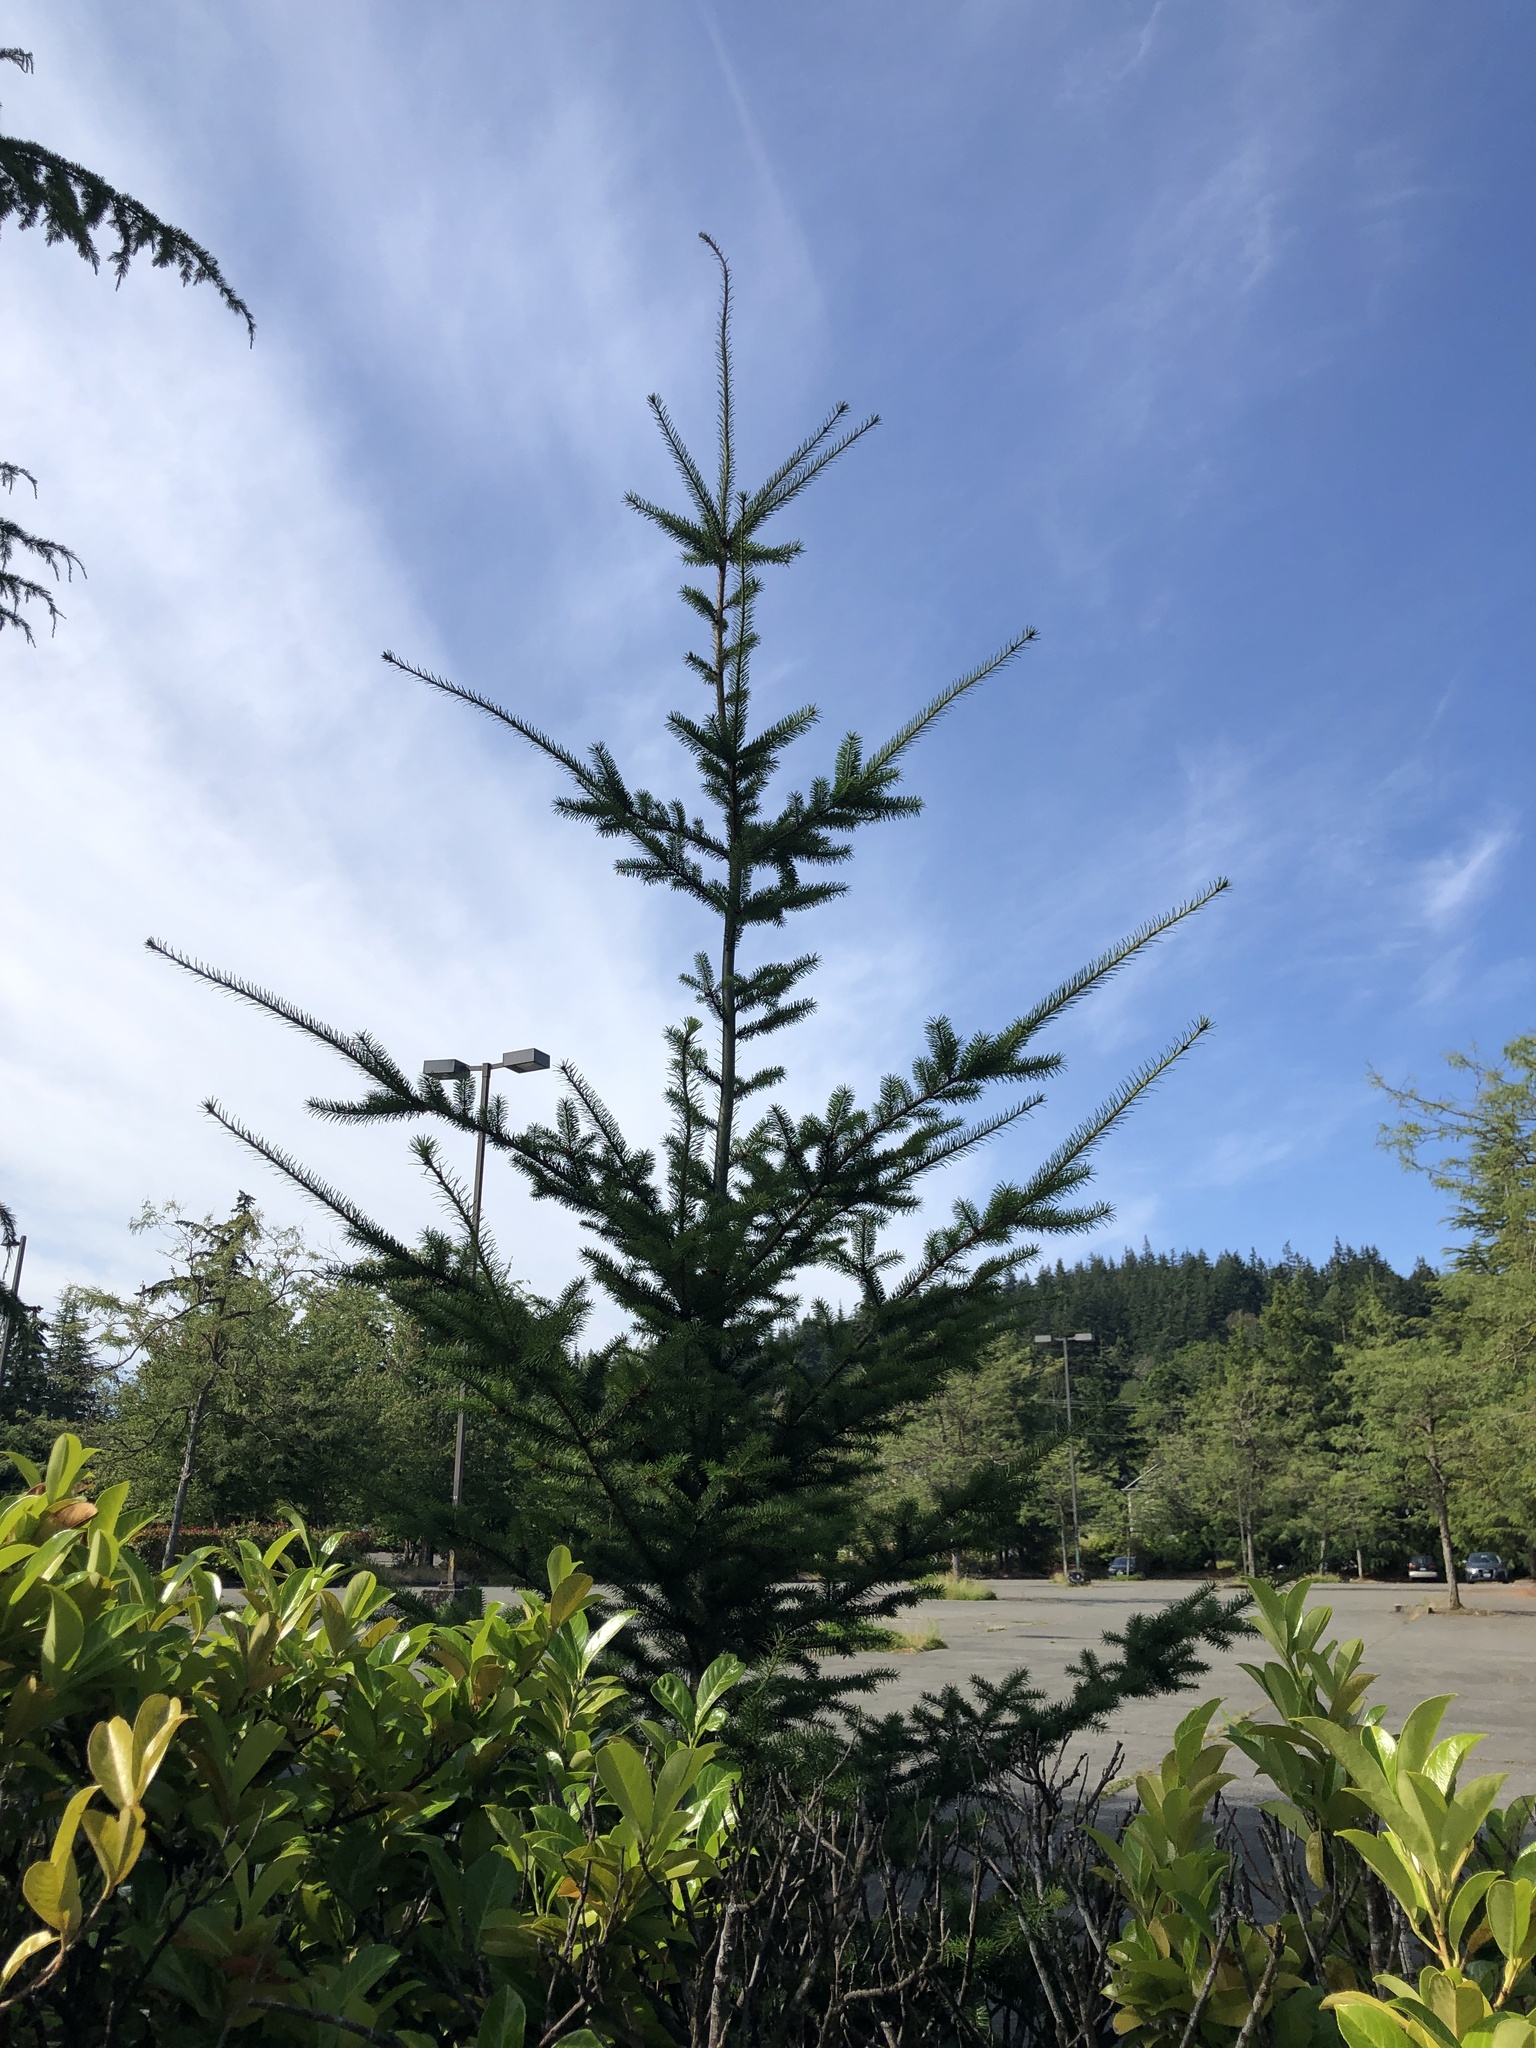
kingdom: Plantae
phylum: Tracheophyta
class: Pinopsida
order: Pinales
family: Pinaceae
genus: Pseudotsuga
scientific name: Pseudotsuga menziesii
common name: Douglas fir
